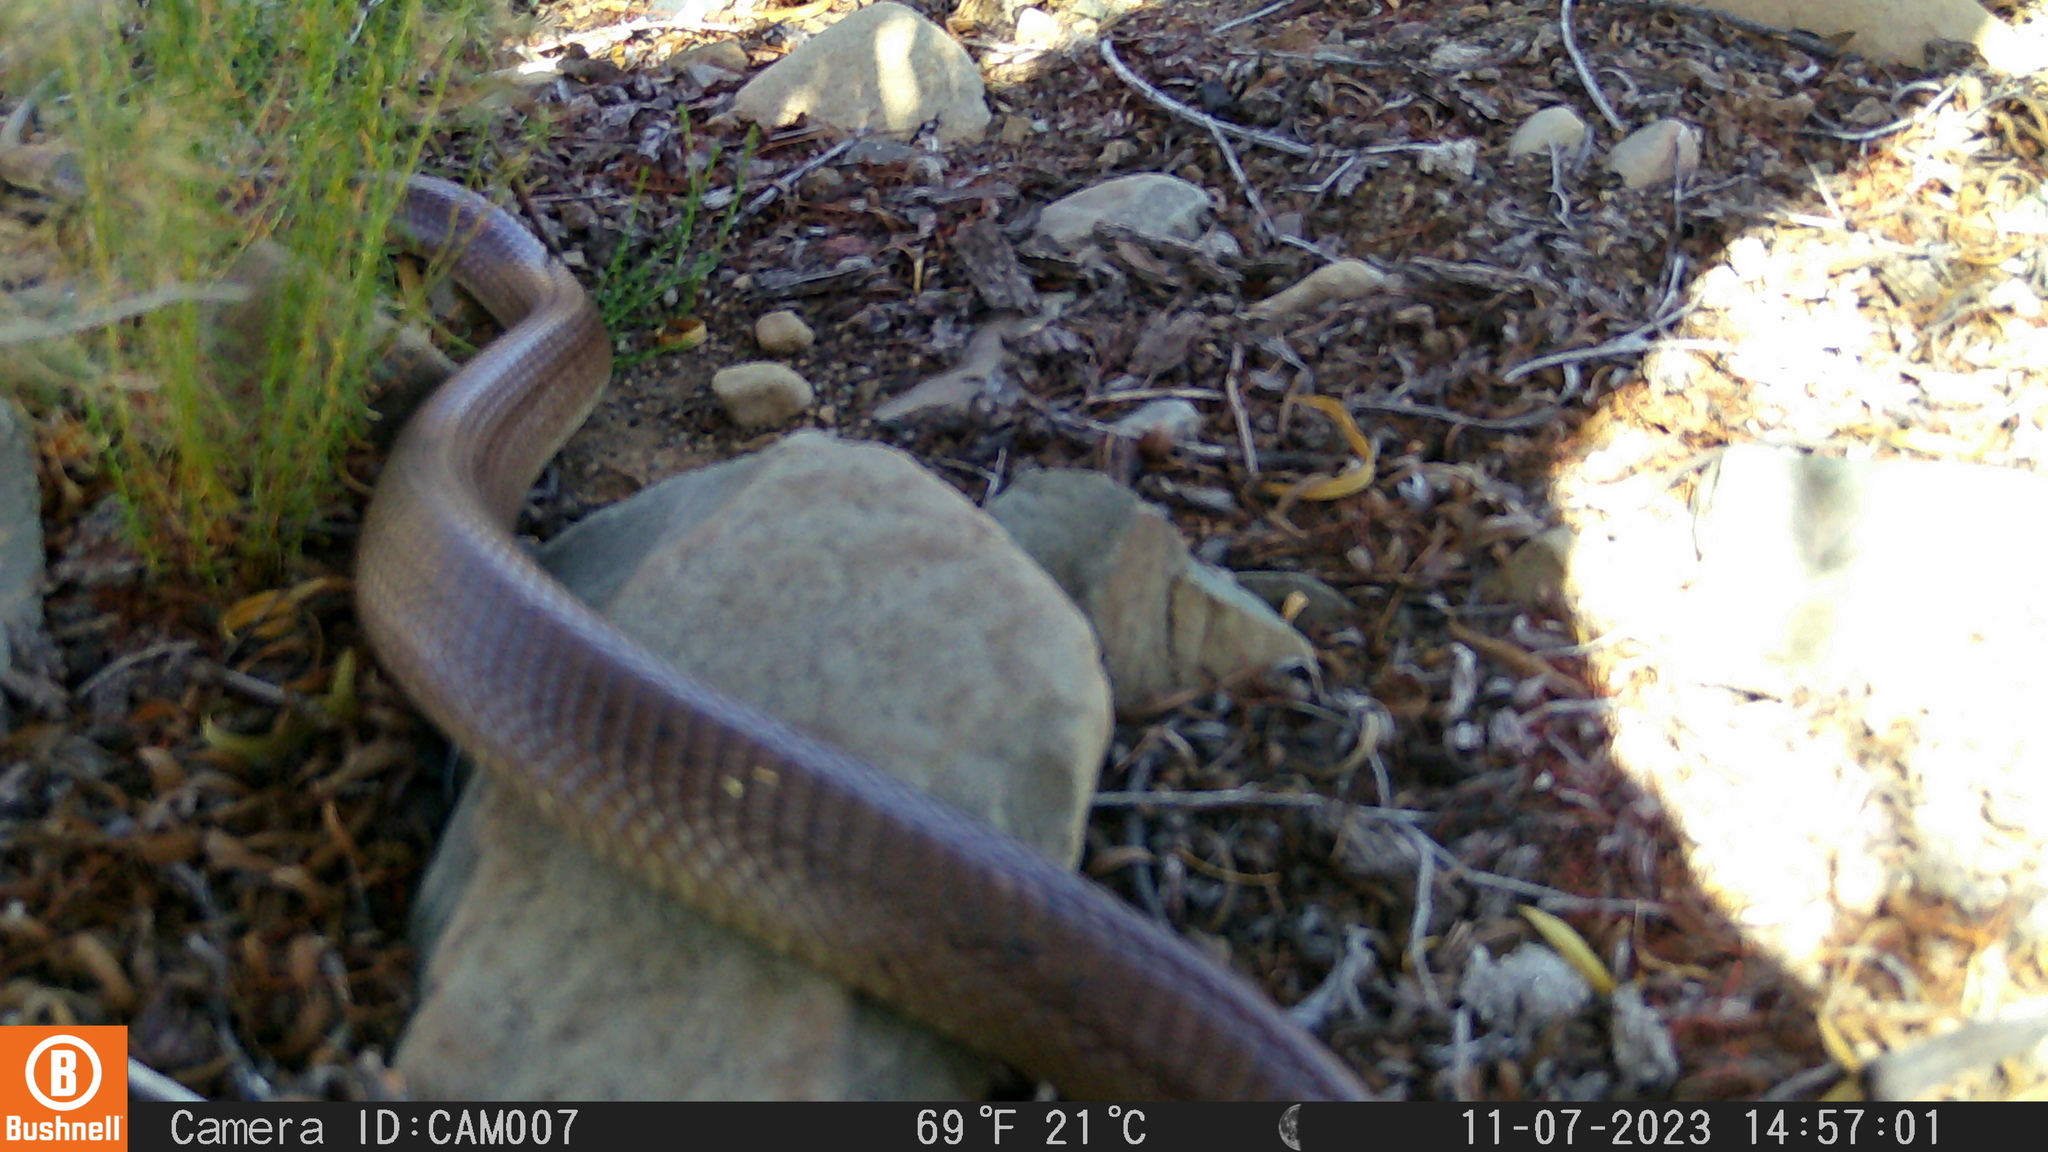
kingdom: Animalia
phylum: Chordata
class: Squamata
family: Elapidae
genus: Naja
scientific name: Naja nivea
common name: Cape cobra
